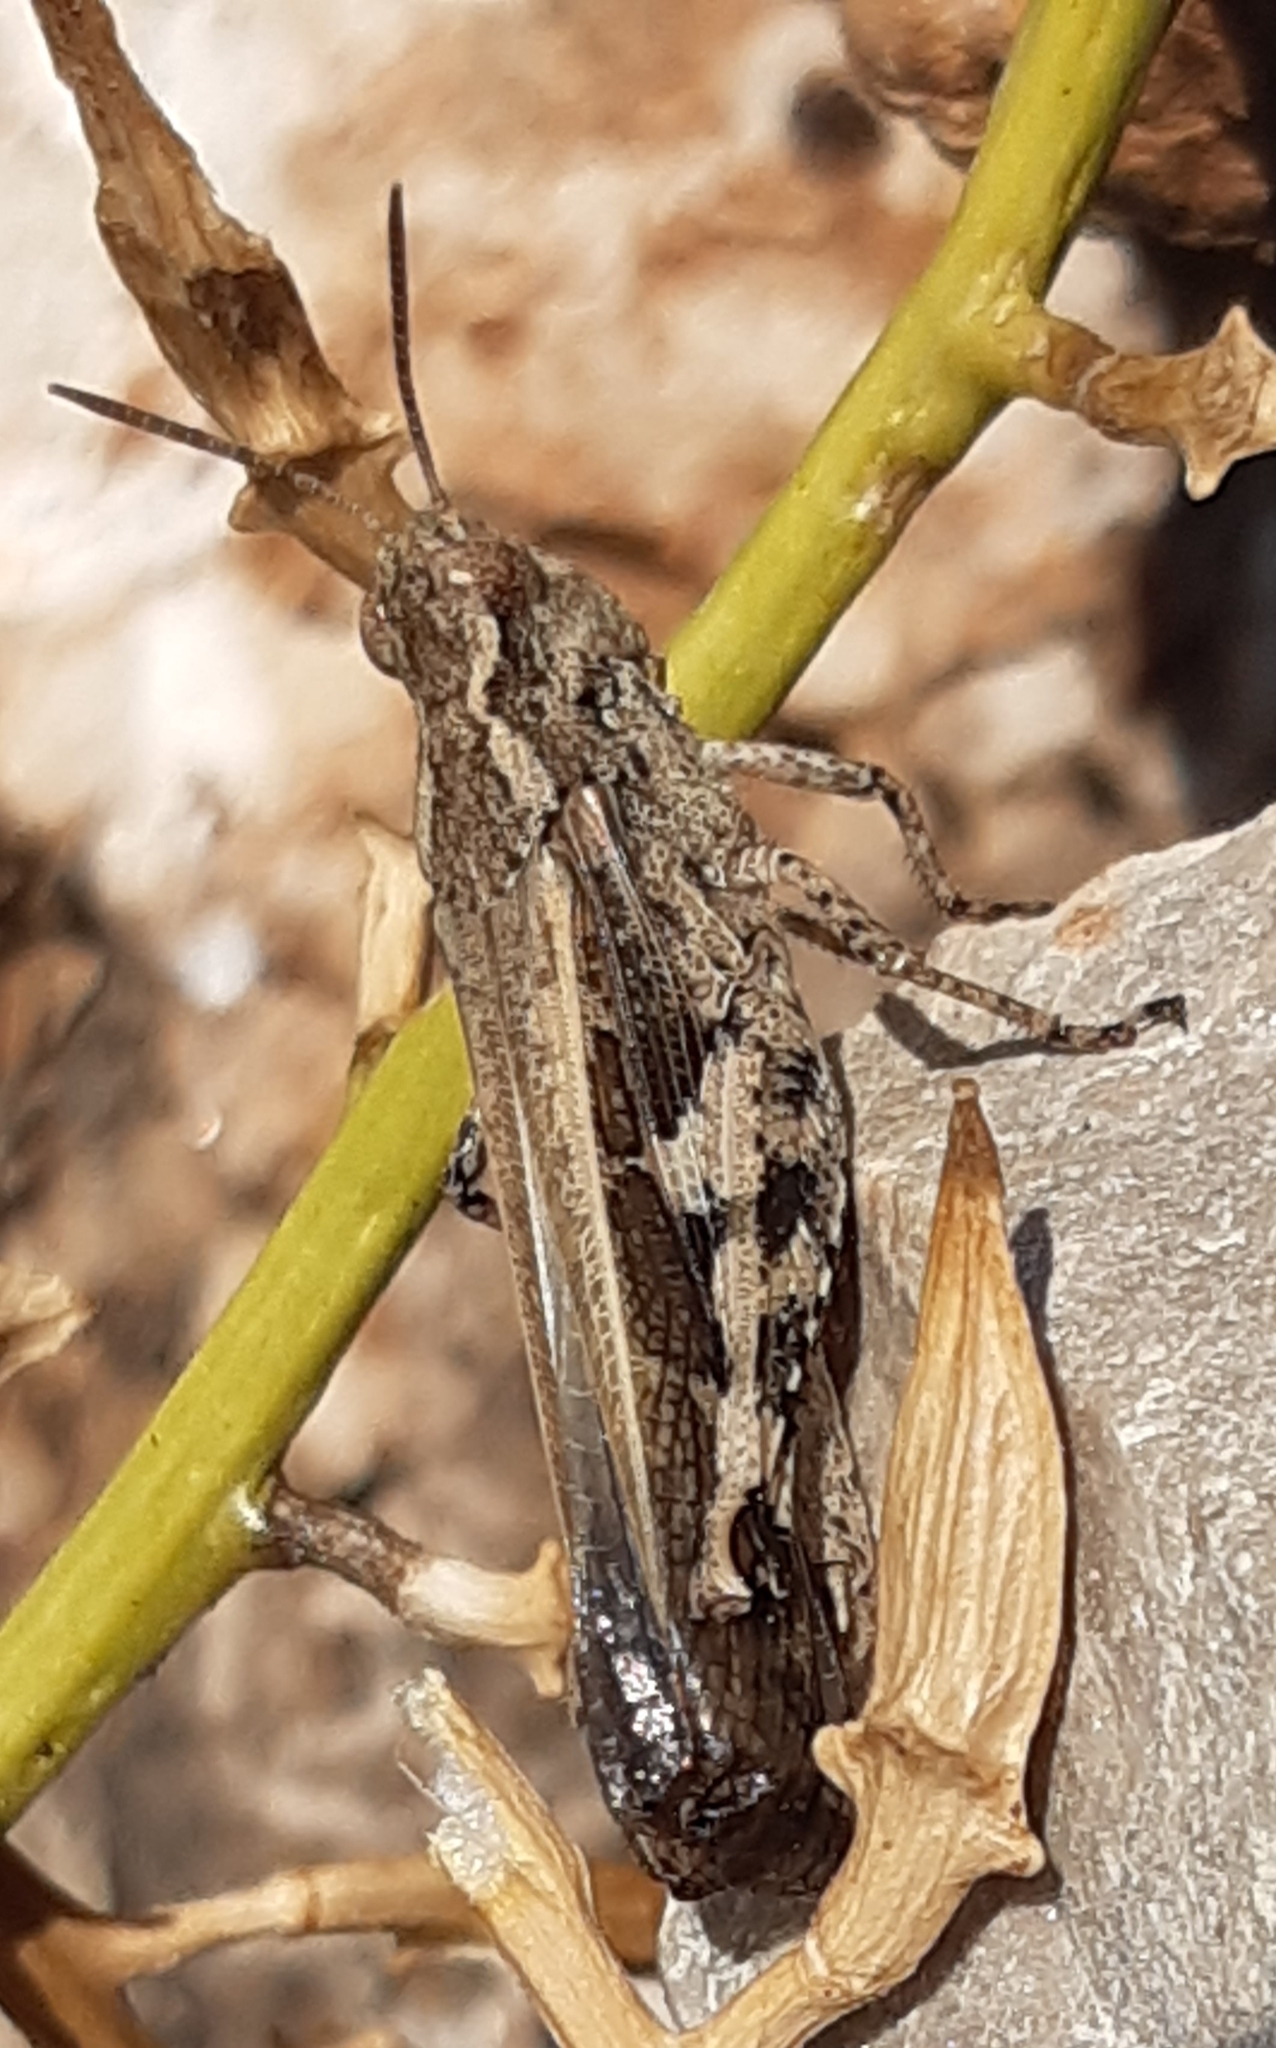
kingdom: Animalia
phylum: Arthropoda
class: Insecta
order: Orthoptera
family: Acrididae
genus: Aiolopus
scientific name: Aiolopus strepens
